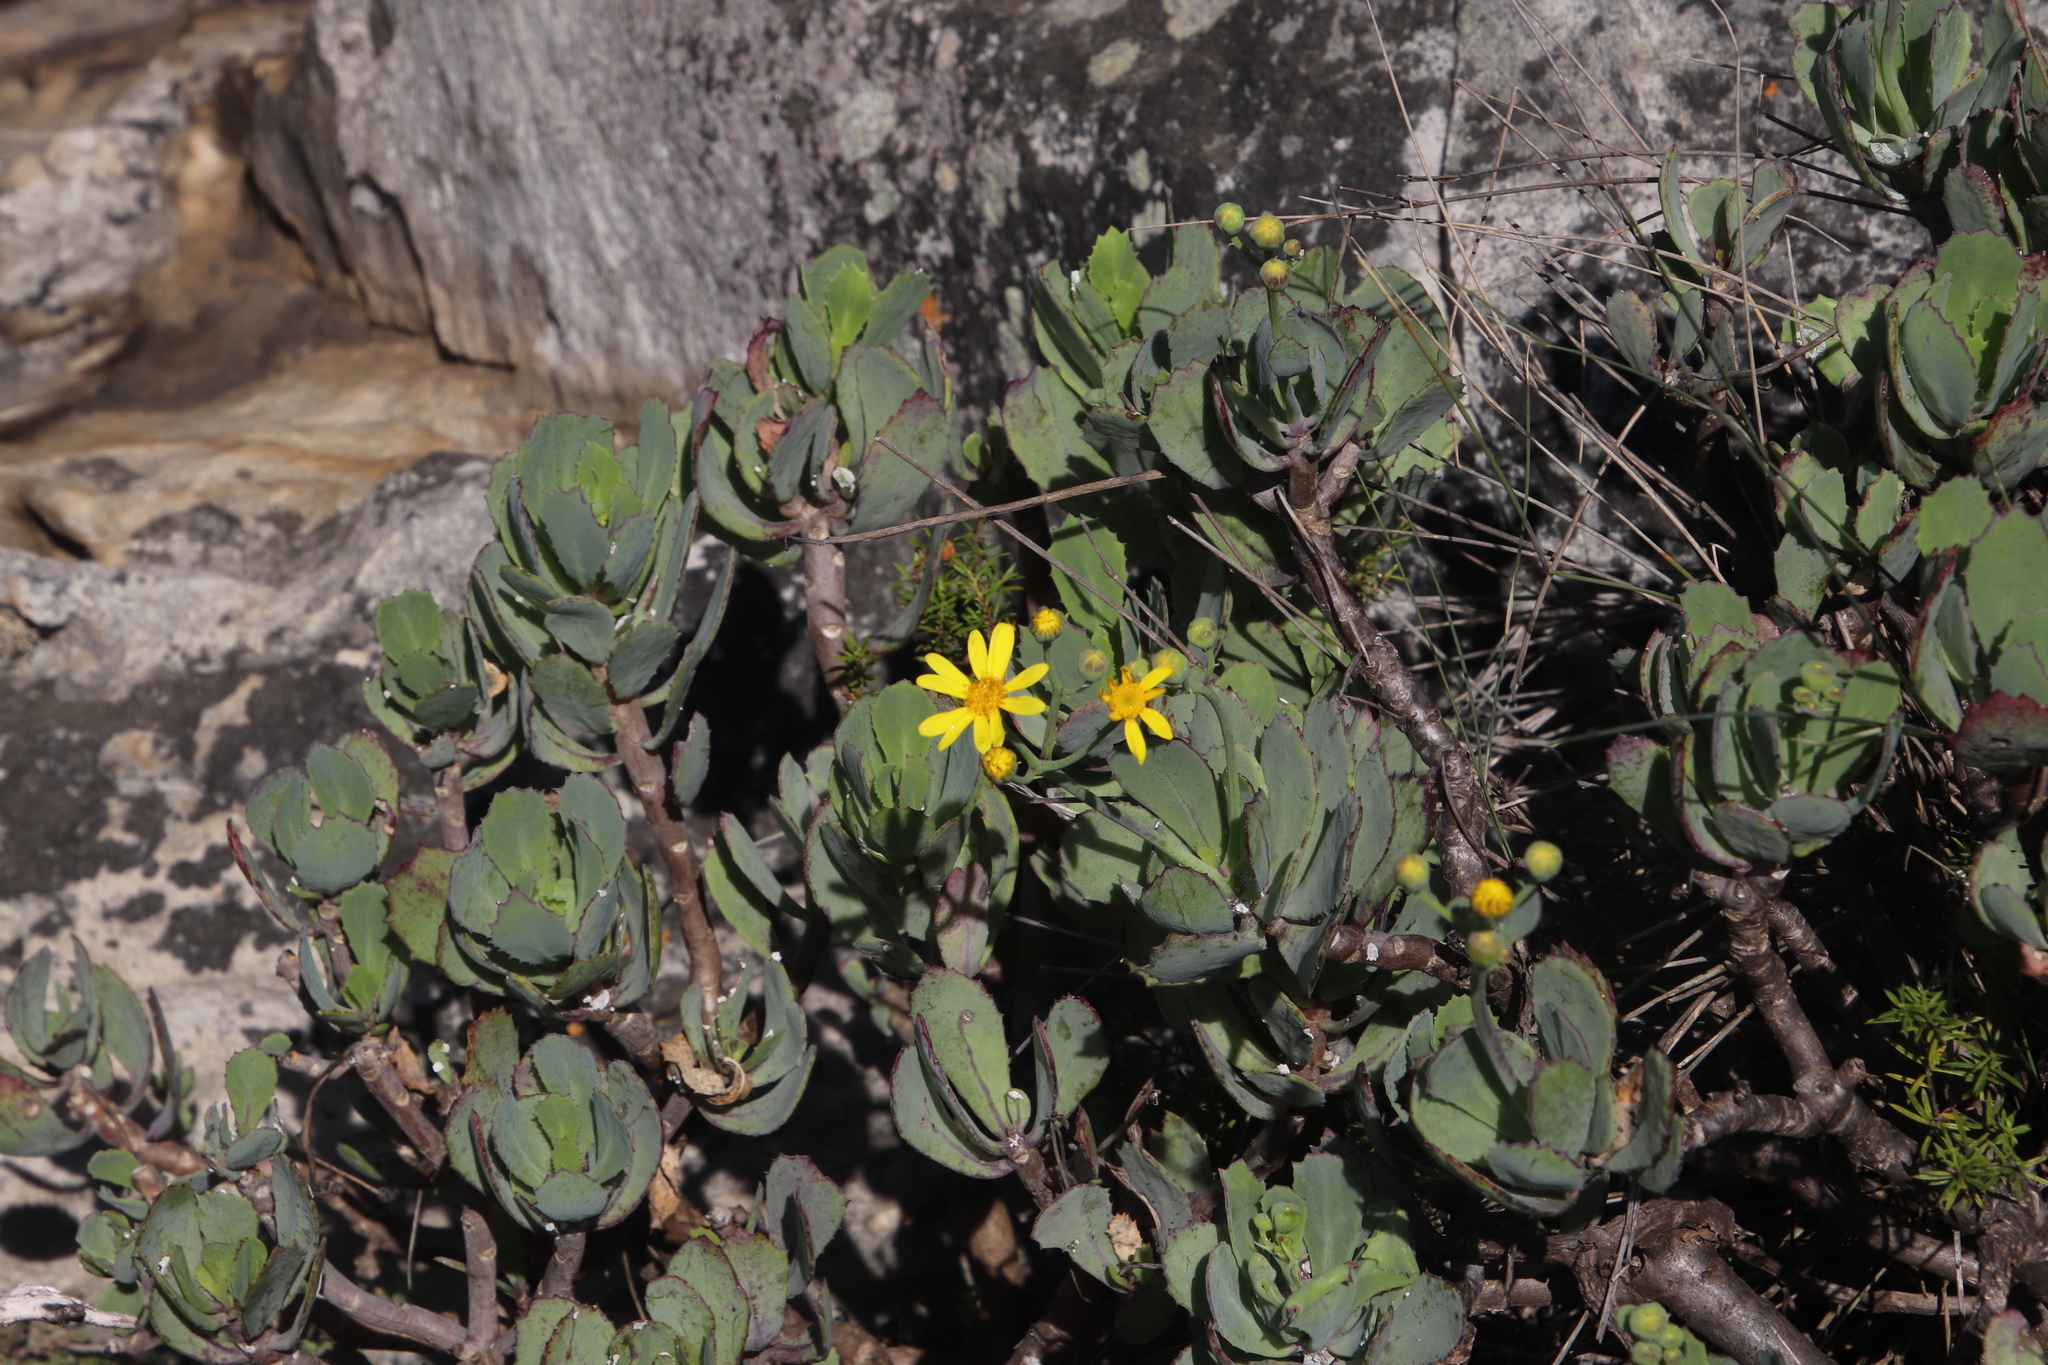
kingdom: Plantae
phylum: Tracheophyta
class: Magnoliopsida
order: Asterales
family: Asteraceae
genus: Othonna
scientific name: Othonna dentata
